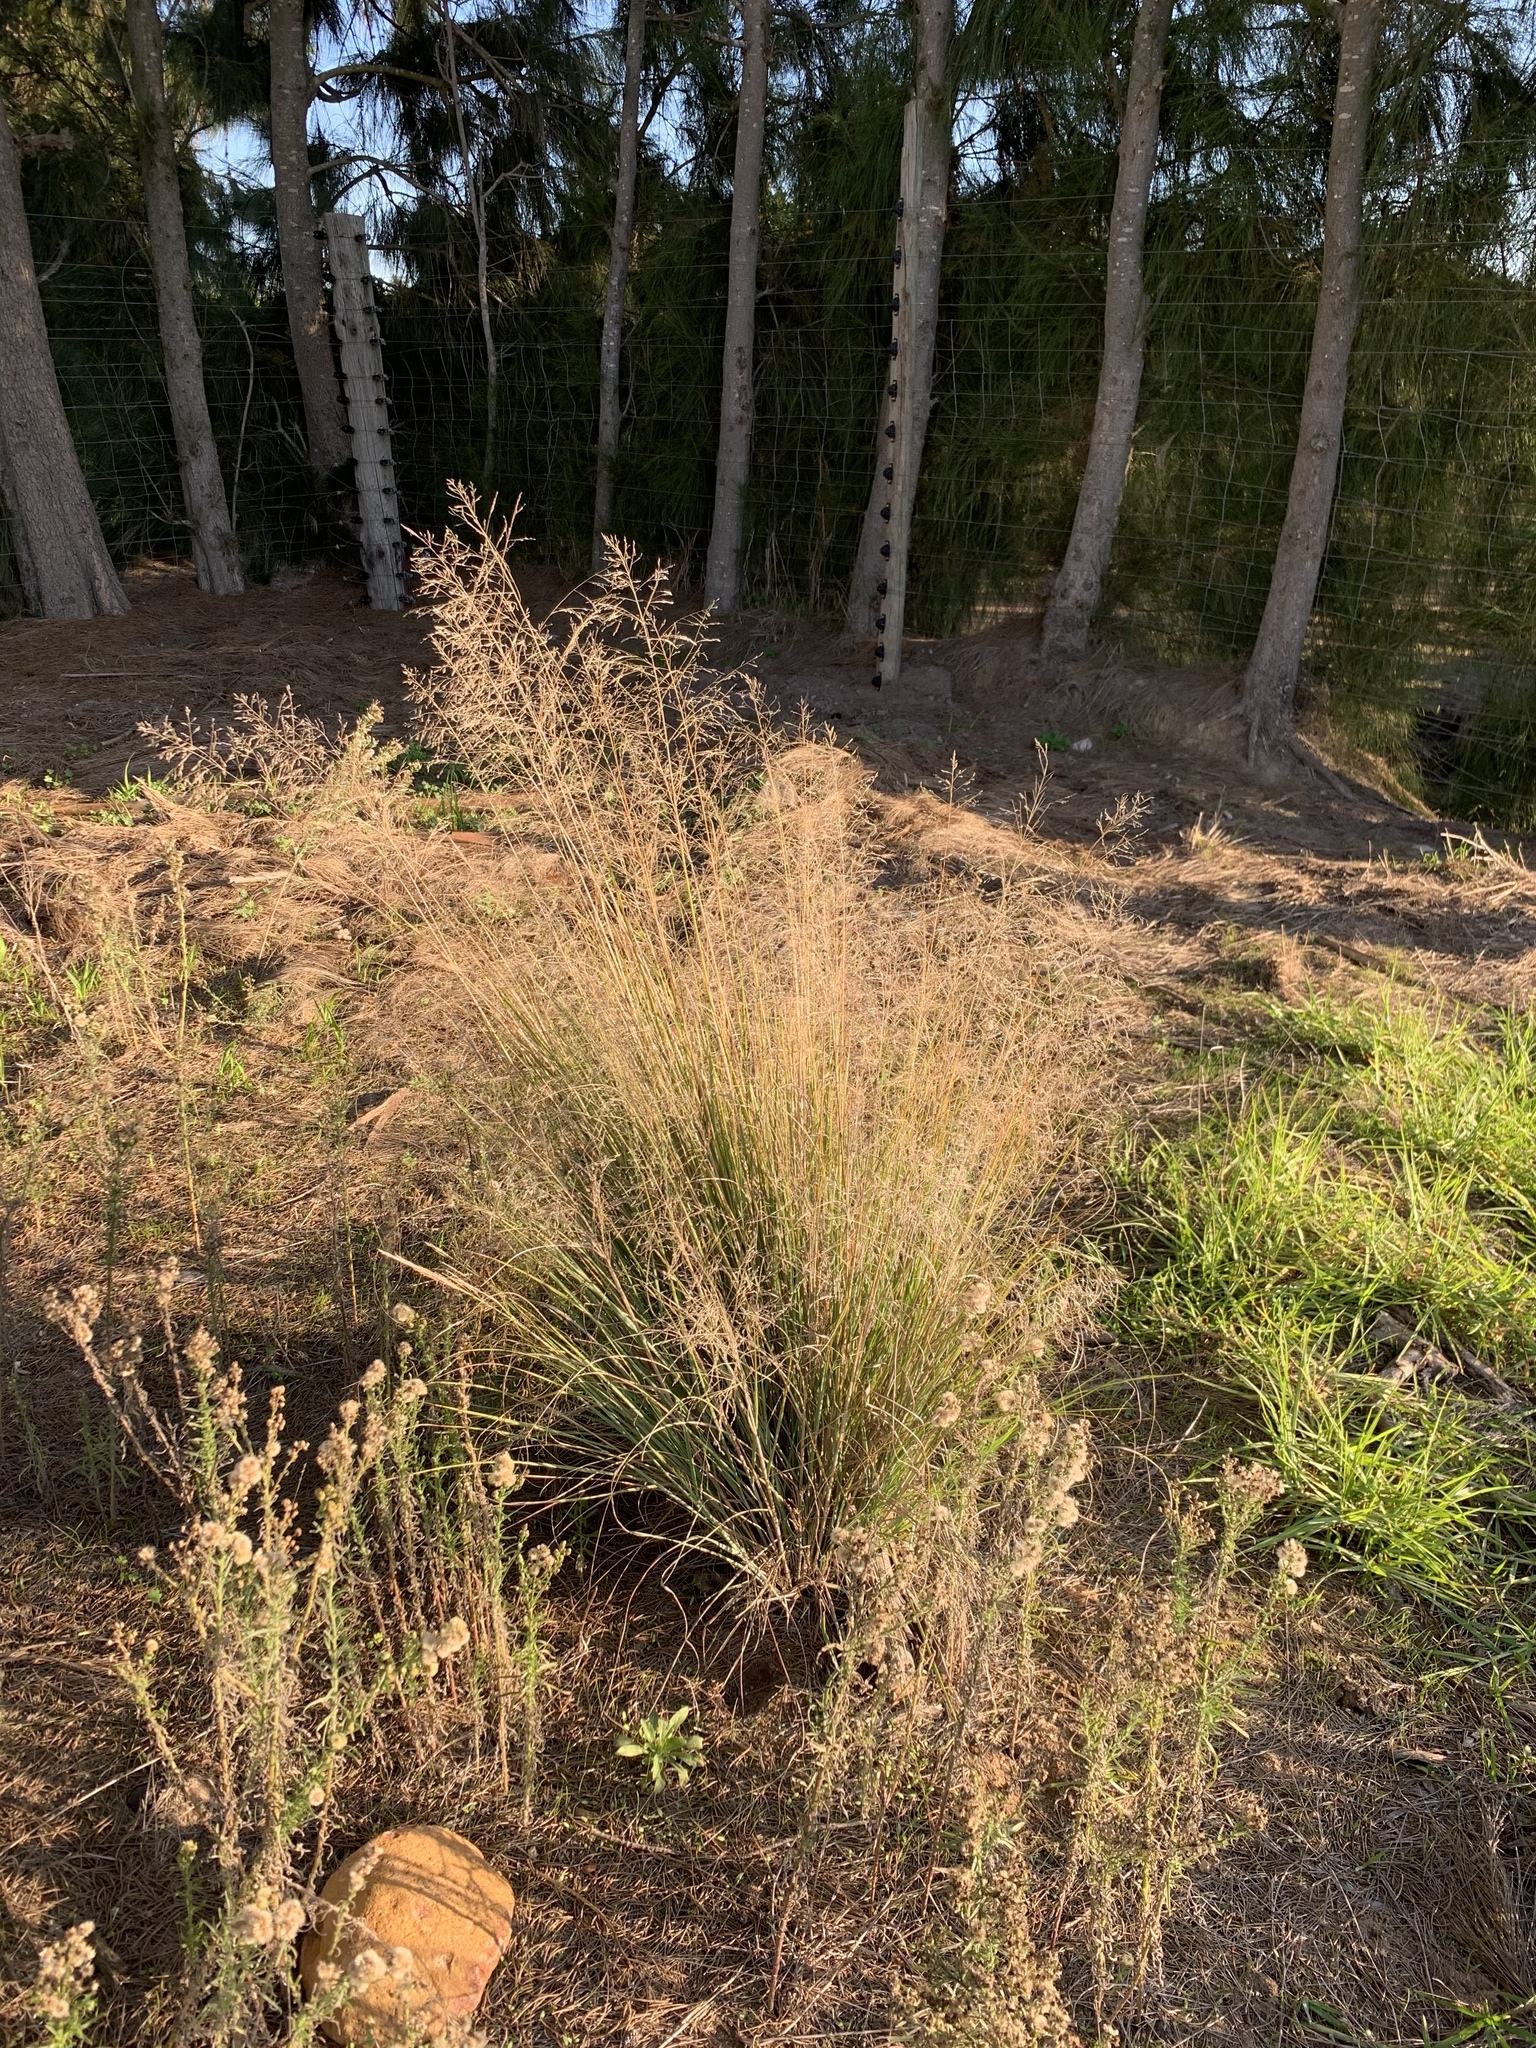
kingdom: Plantae
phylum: Tracheophyta
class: Liliopsida
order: Poales
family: Poaceae
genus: Eragrostis
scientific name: Eragrostis curvula
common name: African love-grass
